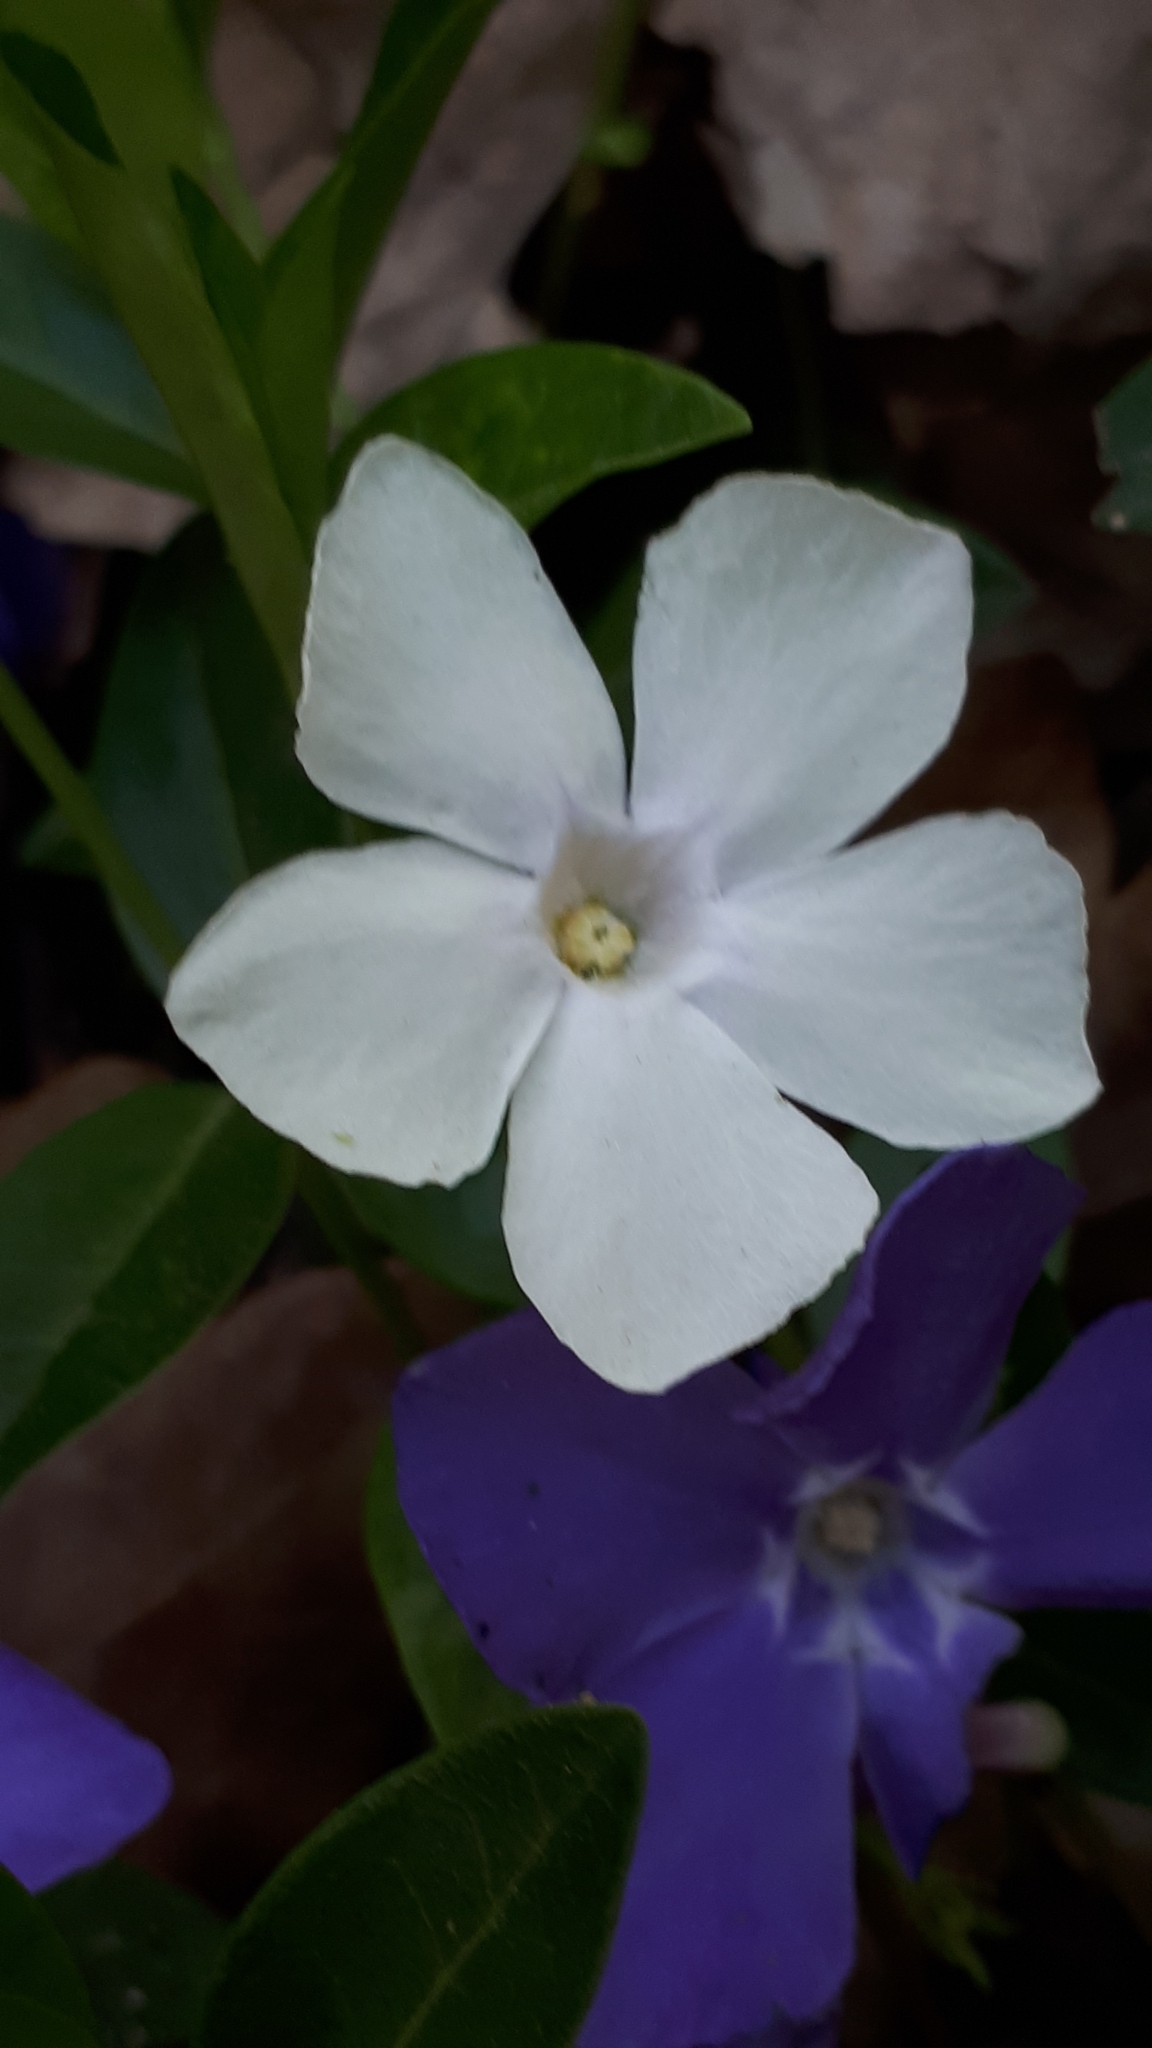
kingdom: Plantae
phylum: Tracheophyta
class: Magnoliopsida
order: Gentianales
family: Apocynaceae
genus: Vinca
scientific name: Vinca minor
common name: Lesser periwinkle
